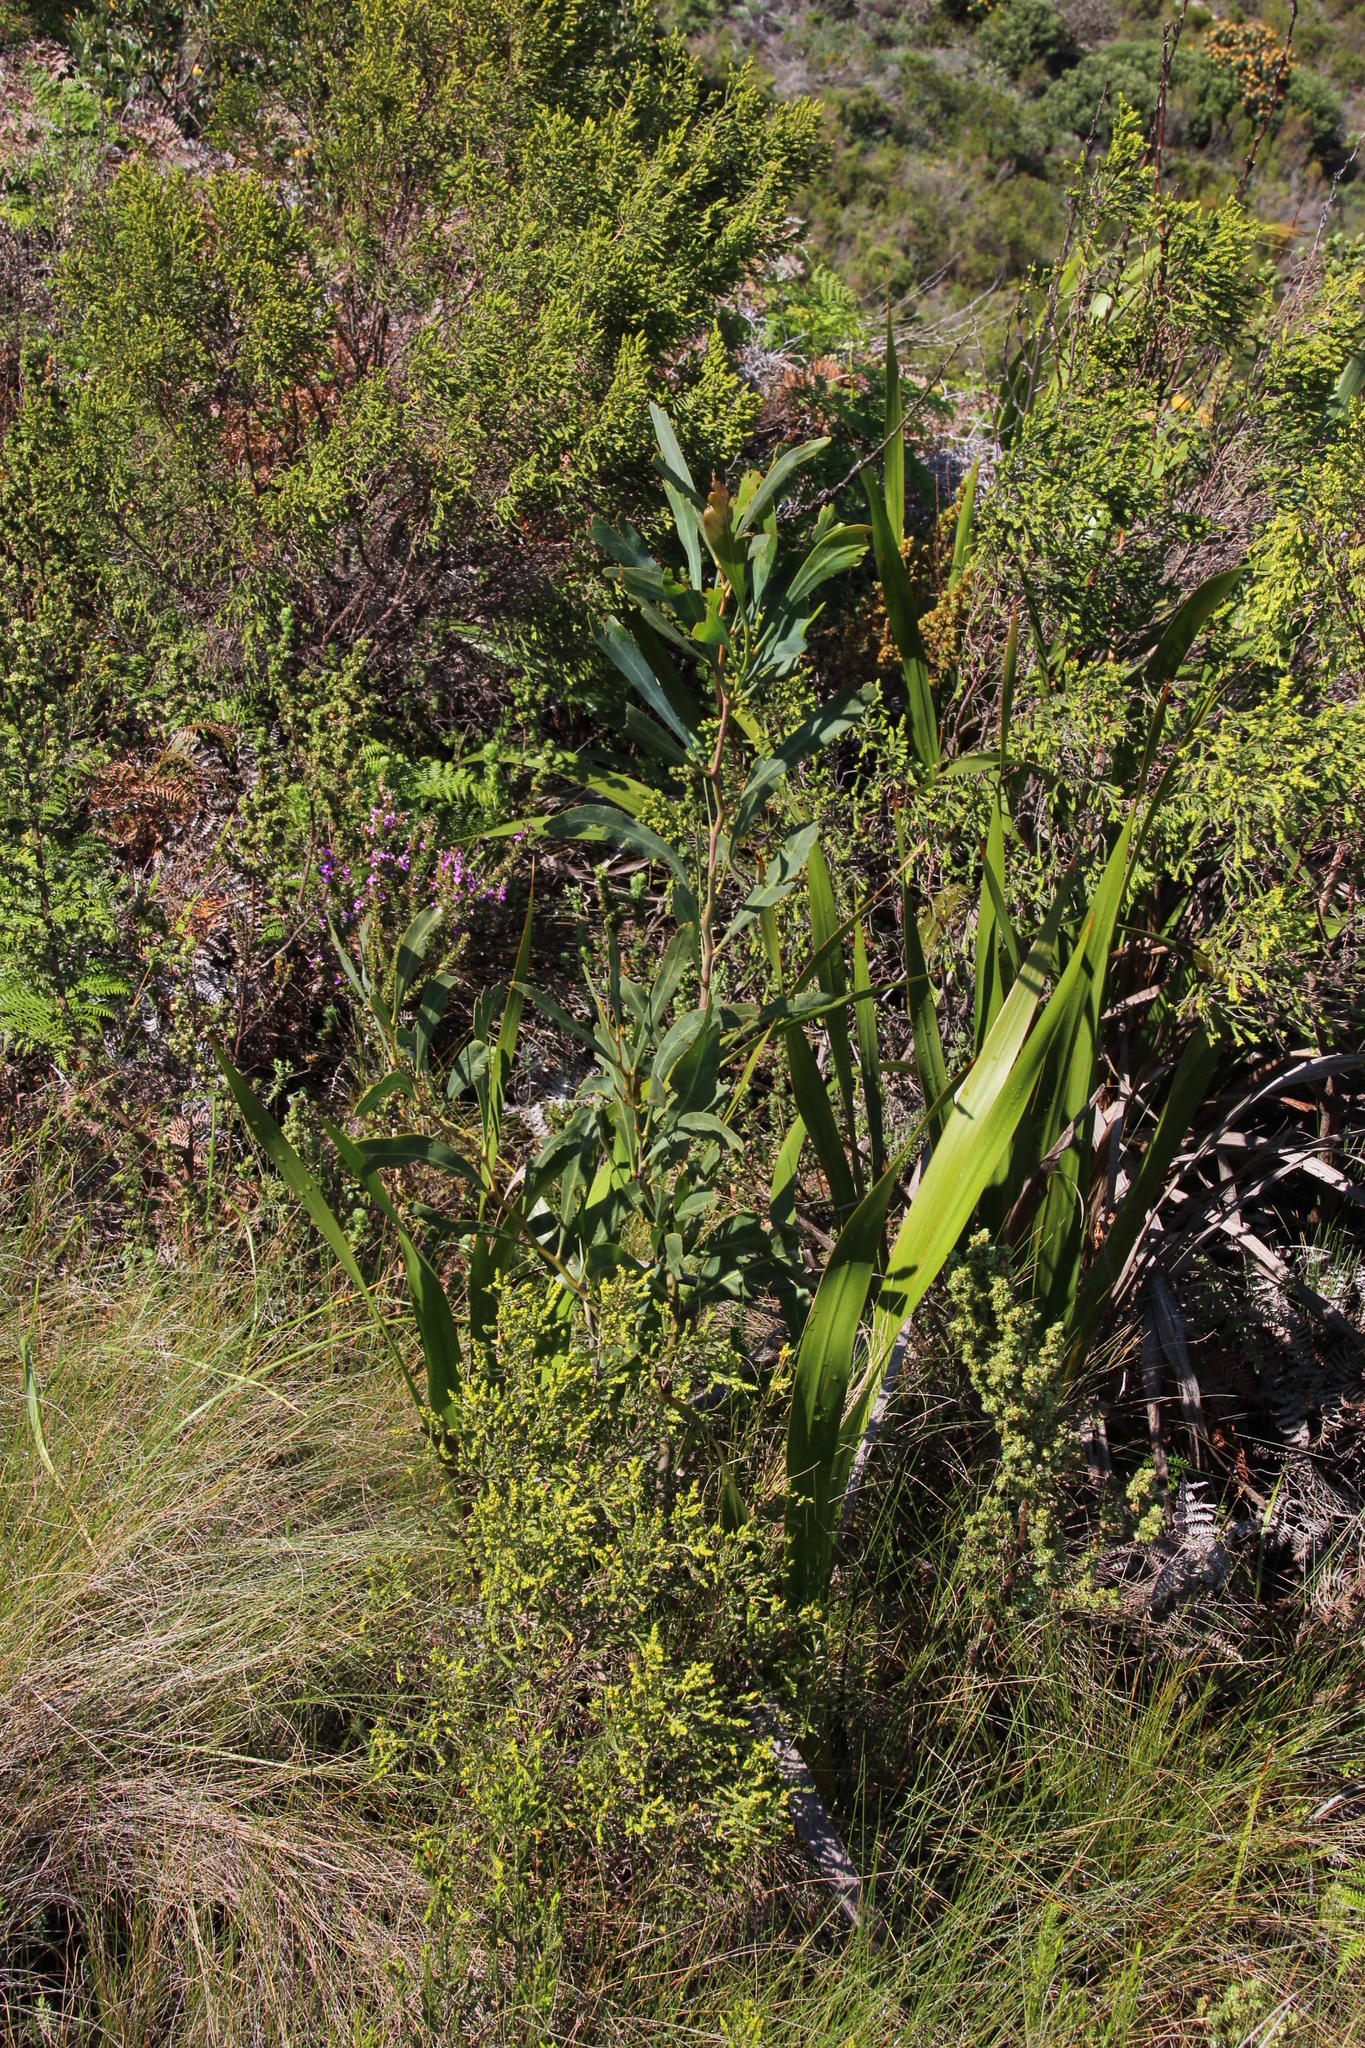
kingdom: Plantae
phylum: Tracheophyta
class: Magnoliopsida
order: Fabales
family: Fabaceae
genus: Acacia
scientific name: Acacia saligna
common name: Orange wattle
